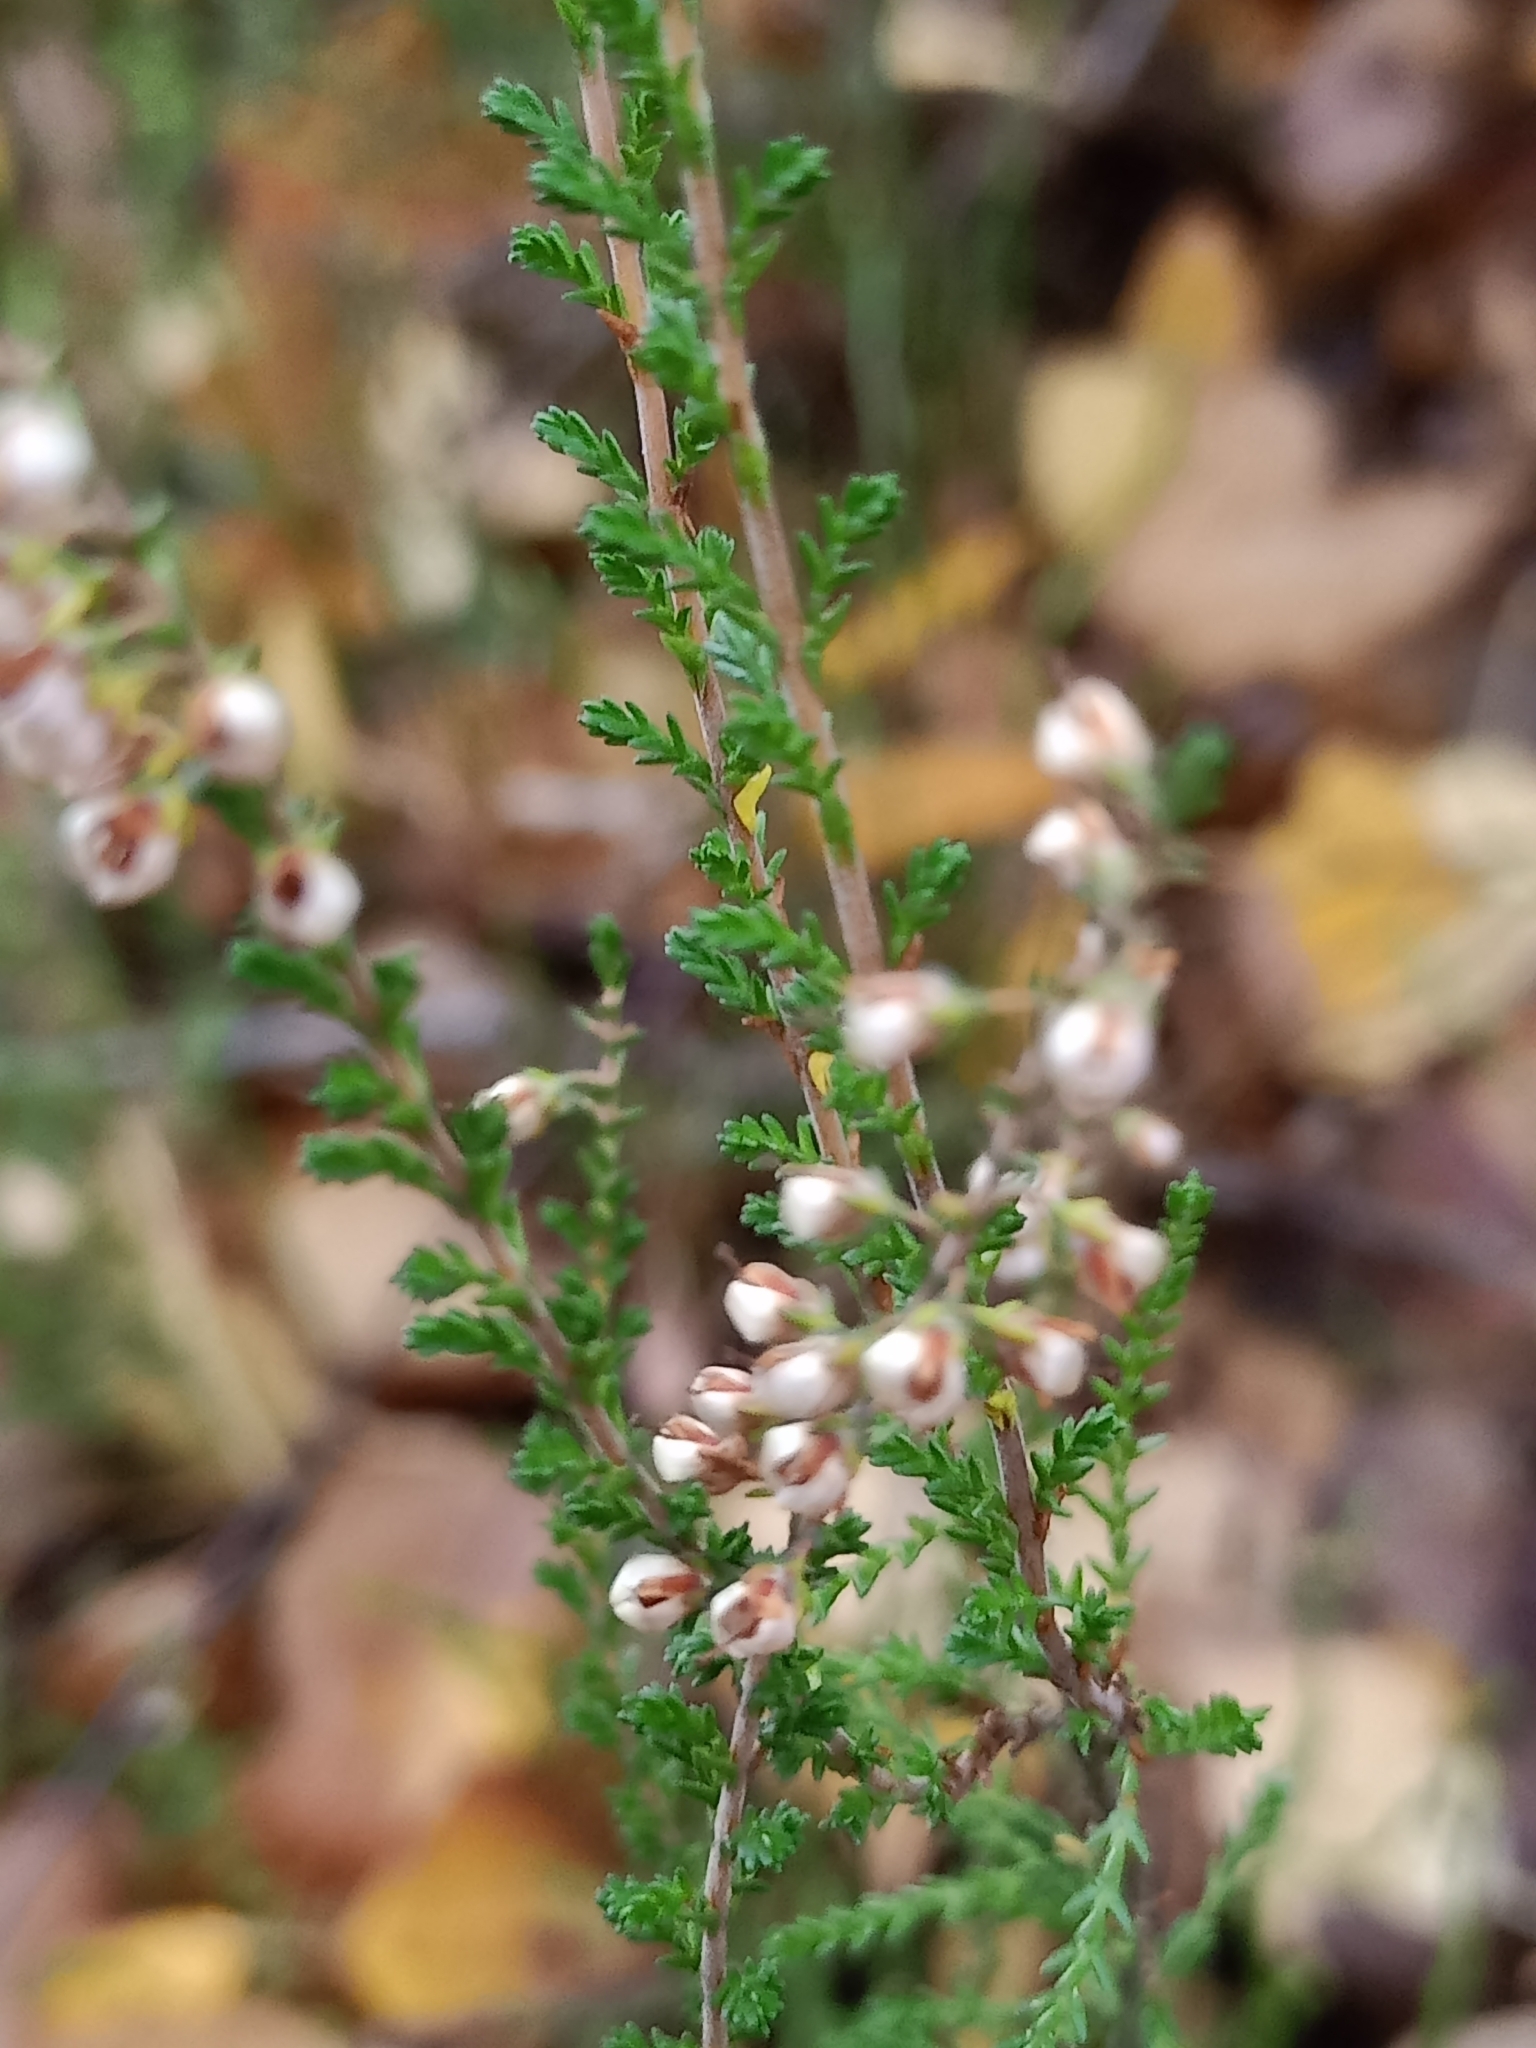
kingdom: Plantae
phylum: Tracheophyta
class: Magnoliopsida
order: Ericales
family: Ericaceae
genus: Calluna
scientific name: Calluna vulgaris
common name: Heather
